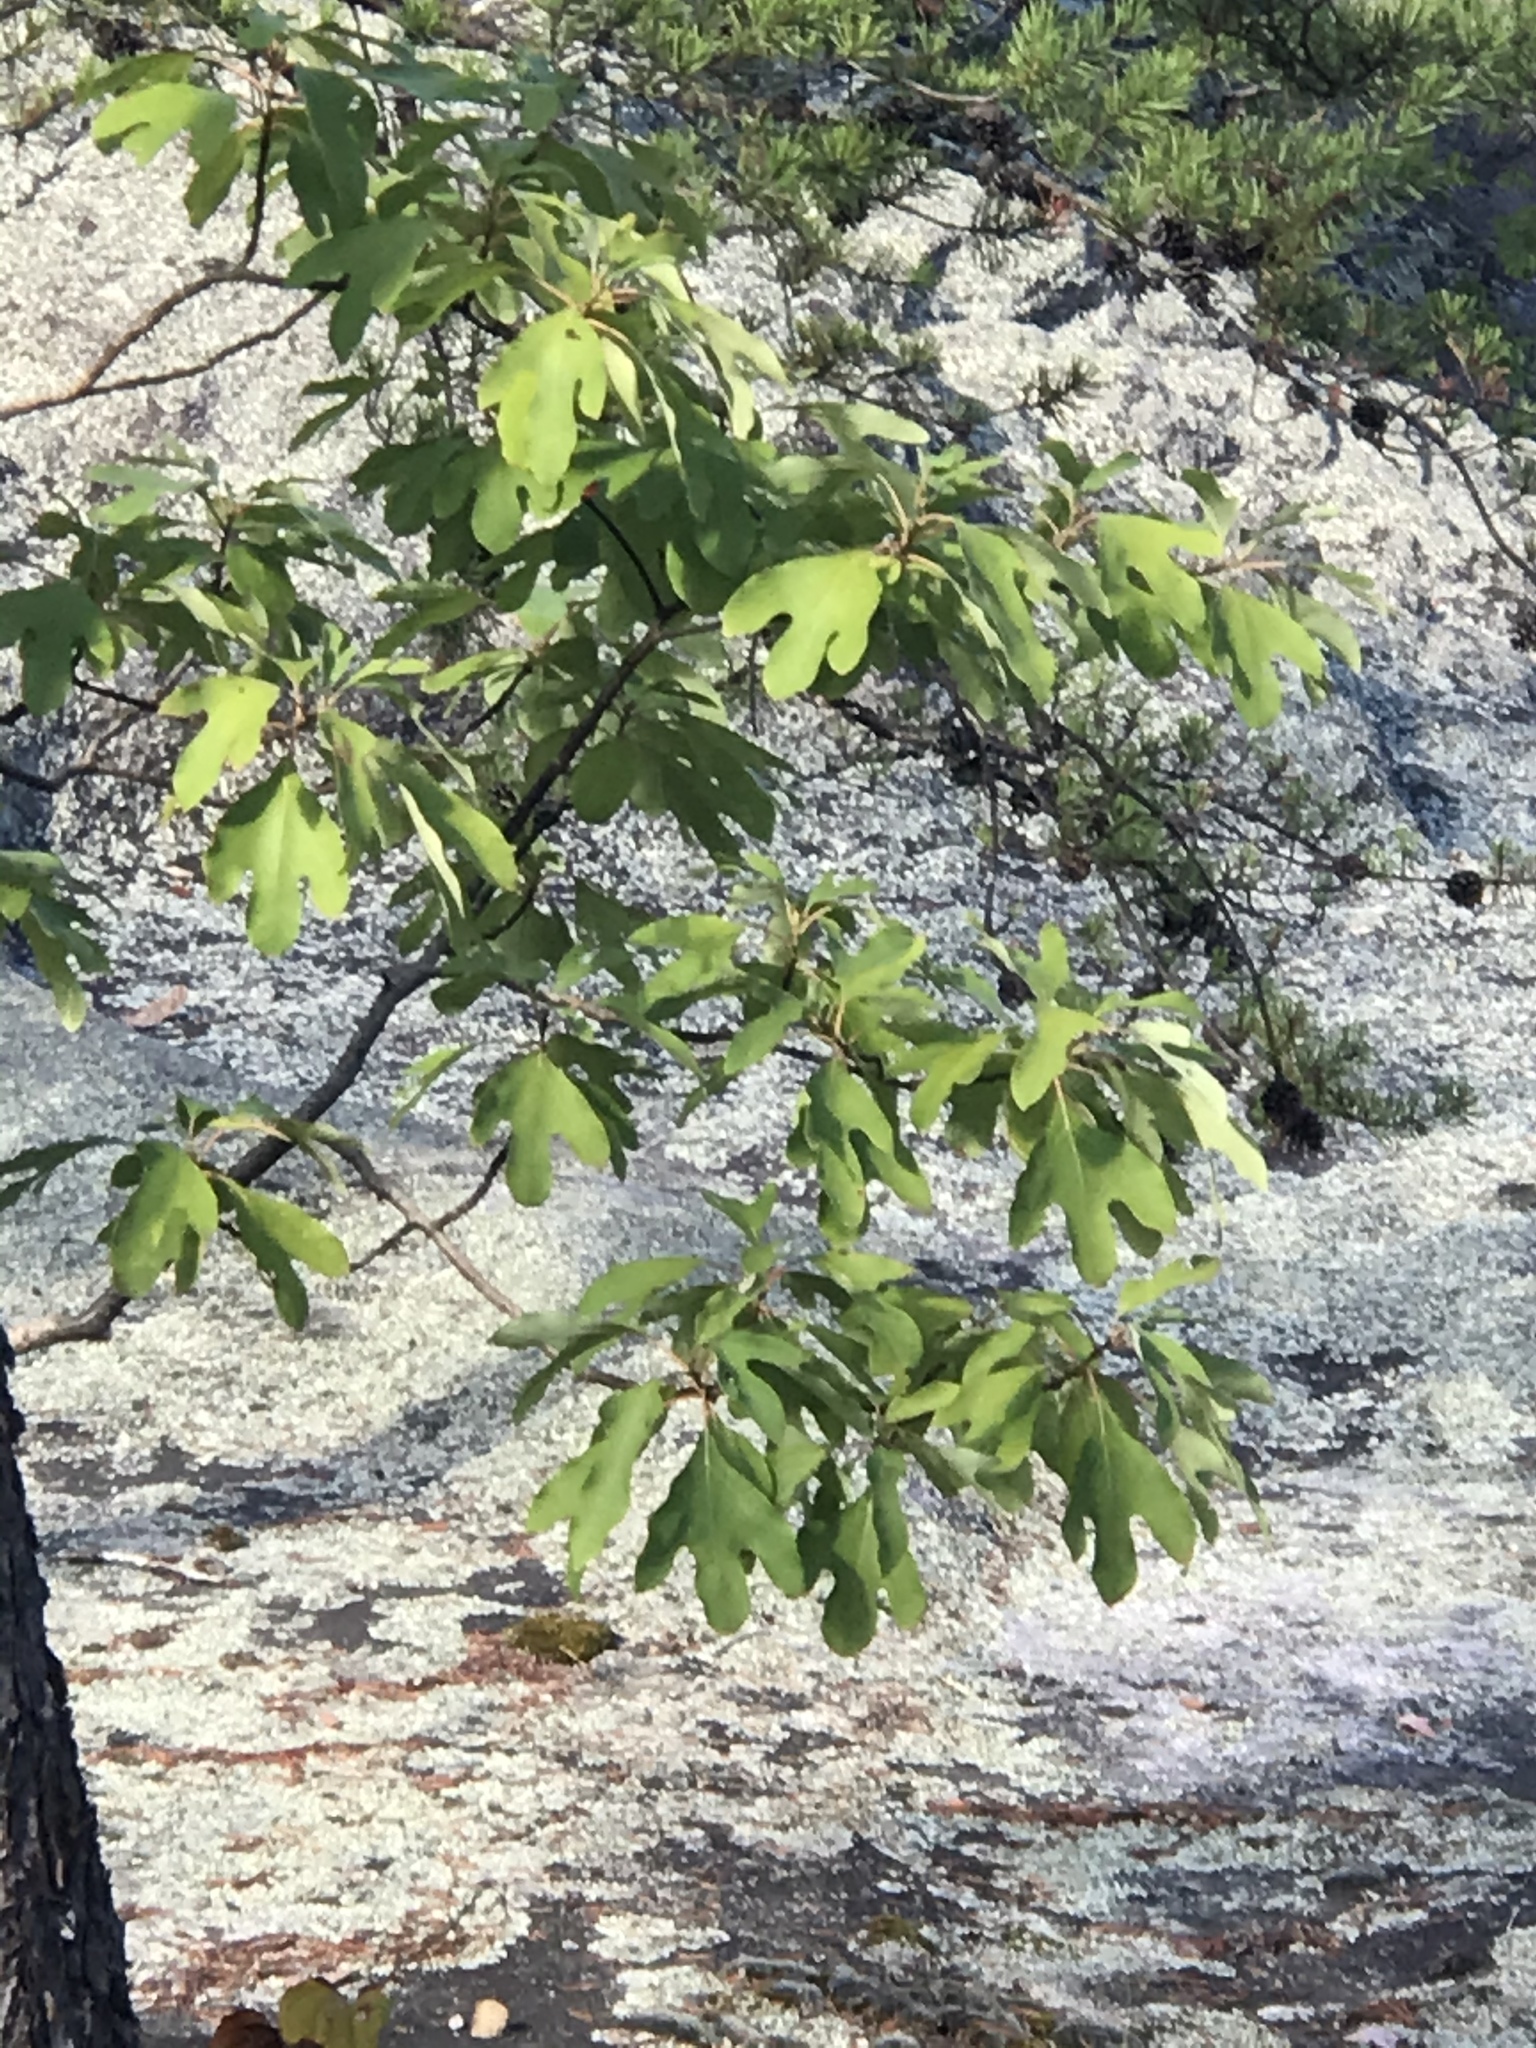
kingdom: Plantae
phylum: Tracheophyta
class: Magnoliopsida
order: Laurales
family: Lauraceae
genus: Sassafras
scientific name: Sassafras albidum
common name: Sassafras
